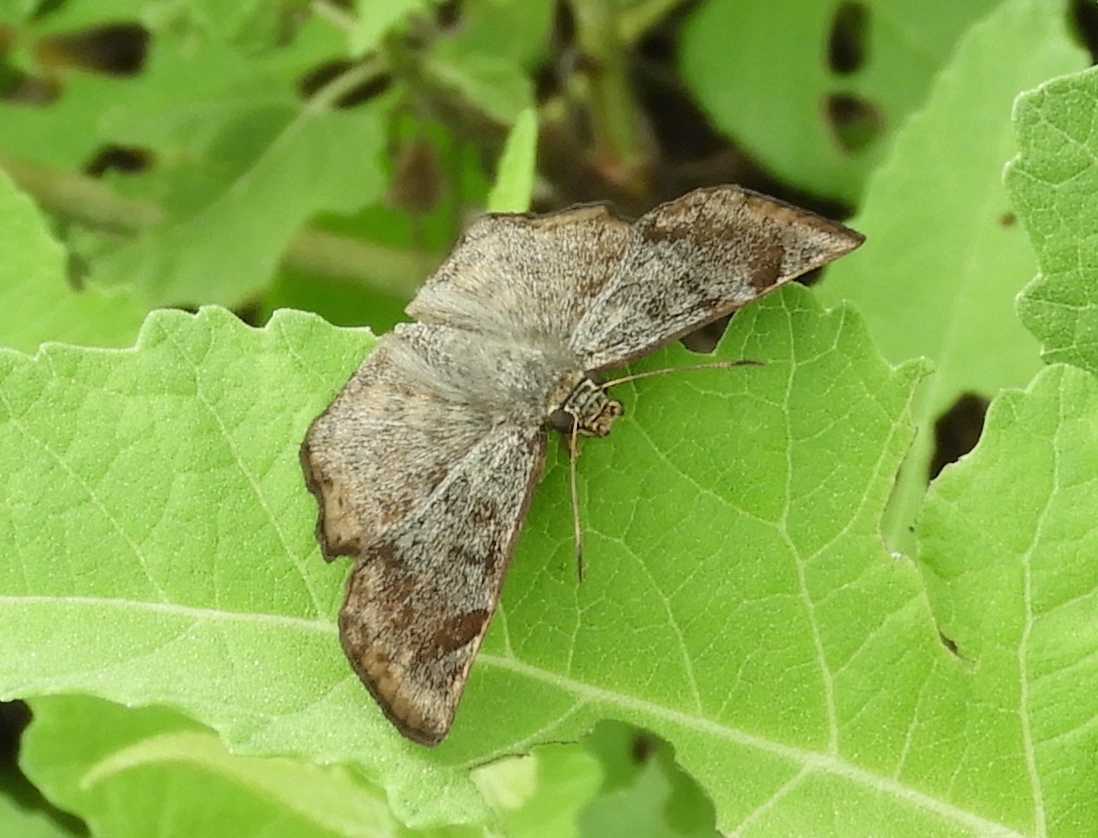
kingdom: Animalia
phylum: Arthropoda
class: Insecta
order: Lepidoptera
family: Hesperiidae
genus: Antigonus
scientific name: Antigonus erosus
